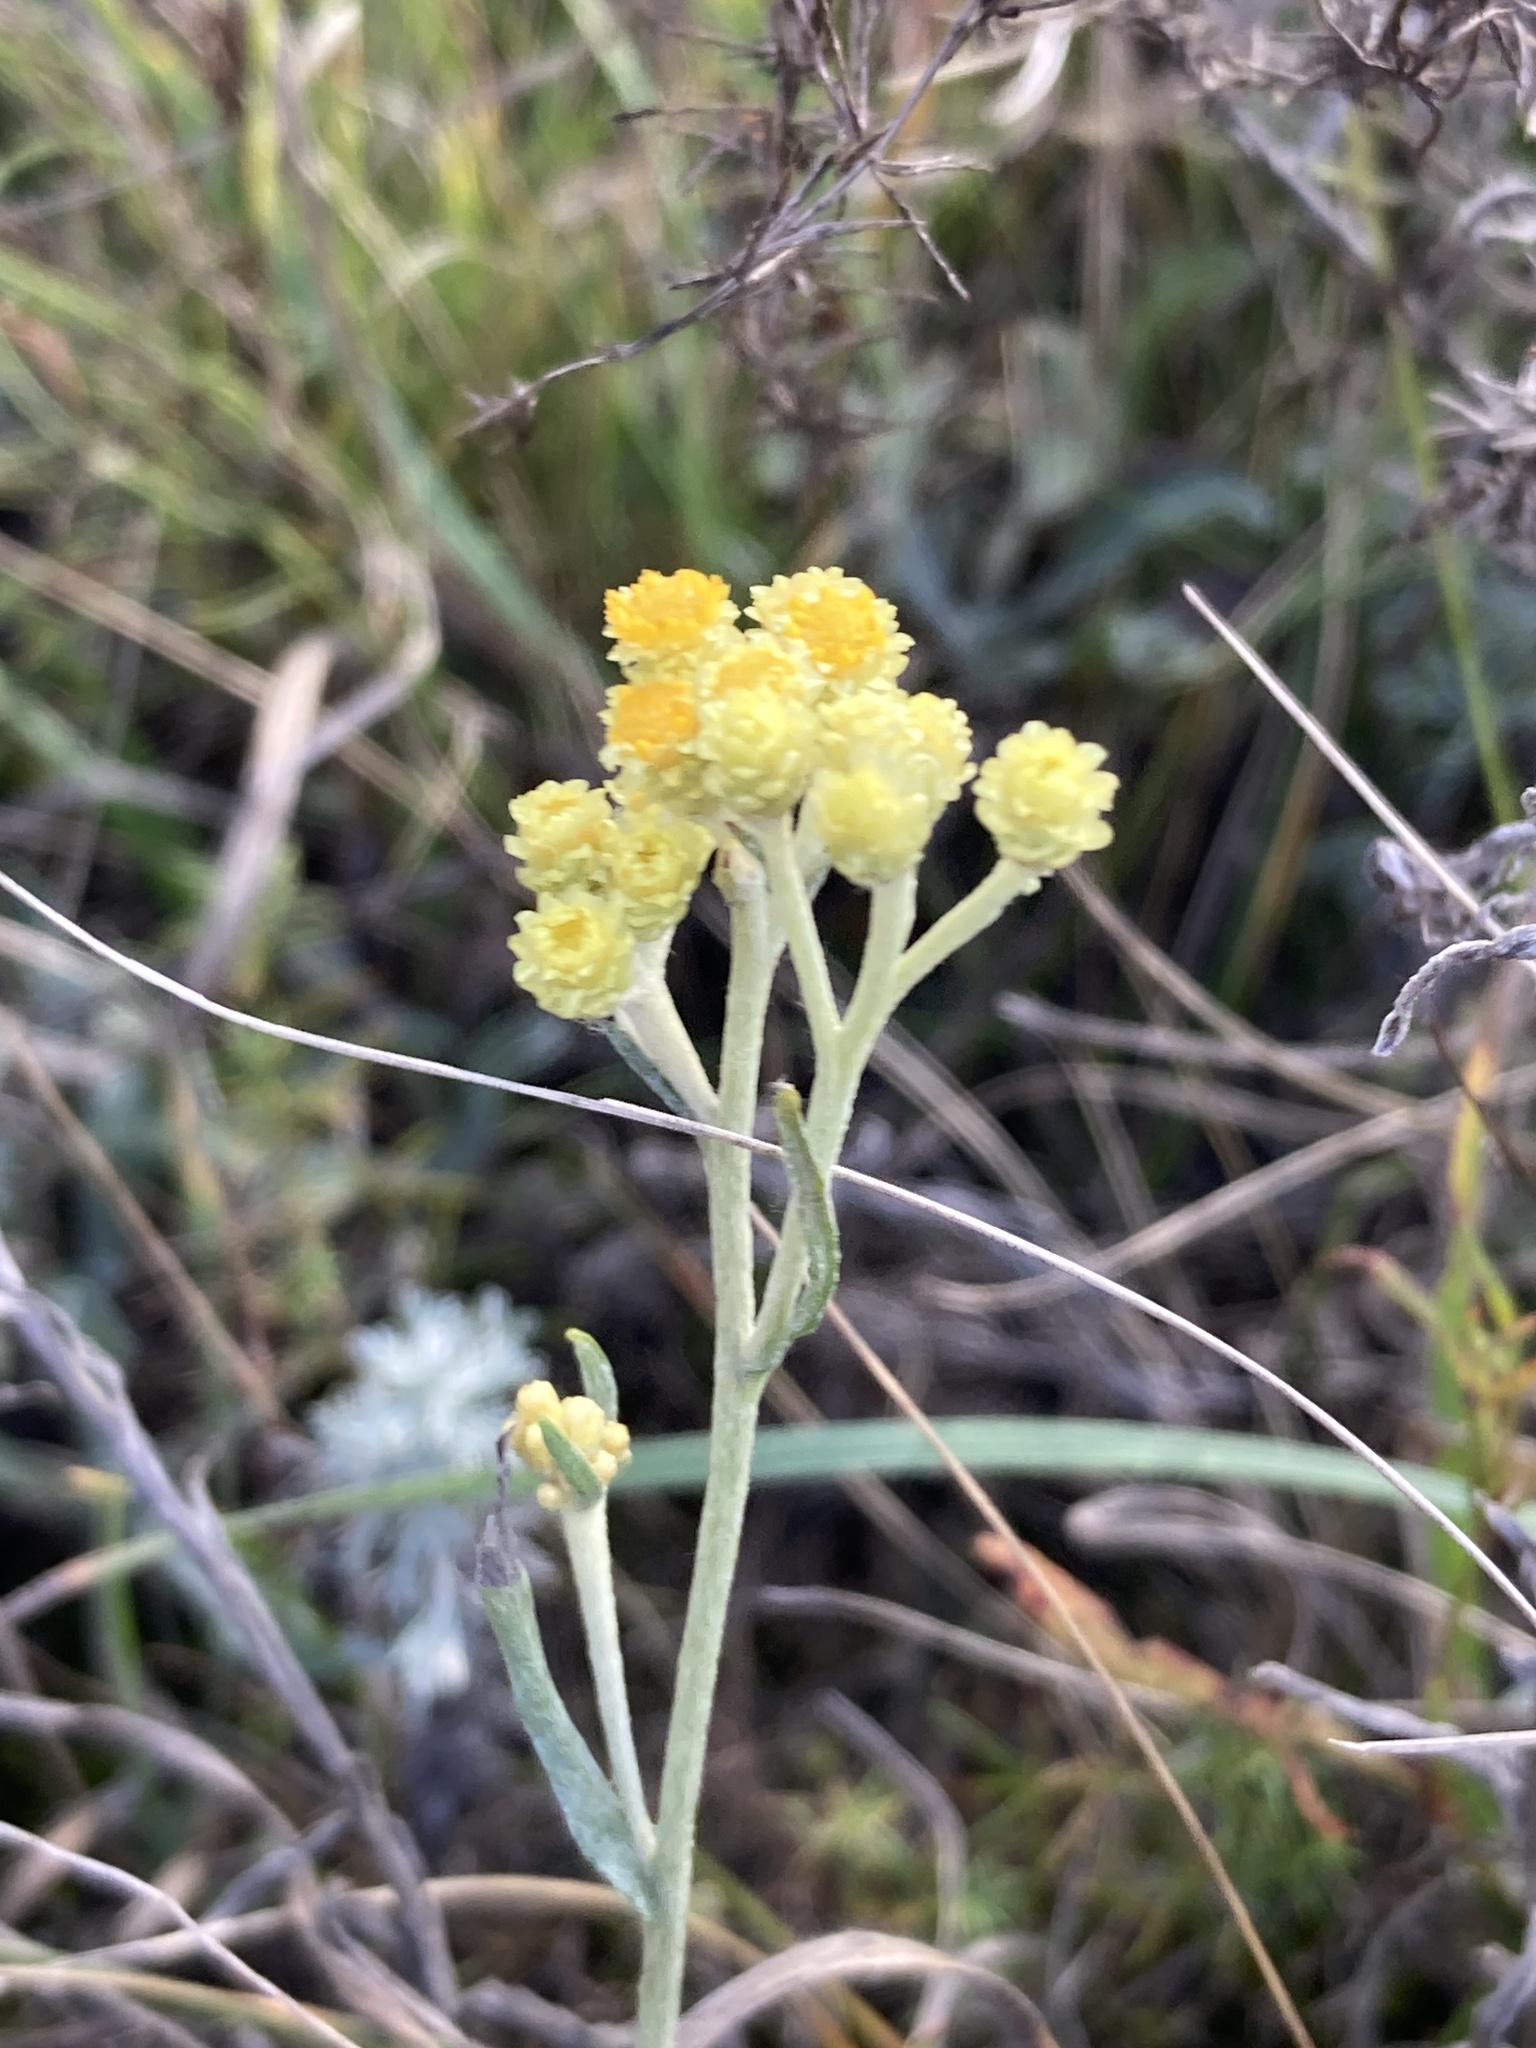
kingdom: Plantae
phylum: Tracheophyta
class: Magnoliopsida
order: Asterales
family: Asteraceae
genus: Helichrysum
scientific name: Helichrysum arenarium
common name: Strawflower
